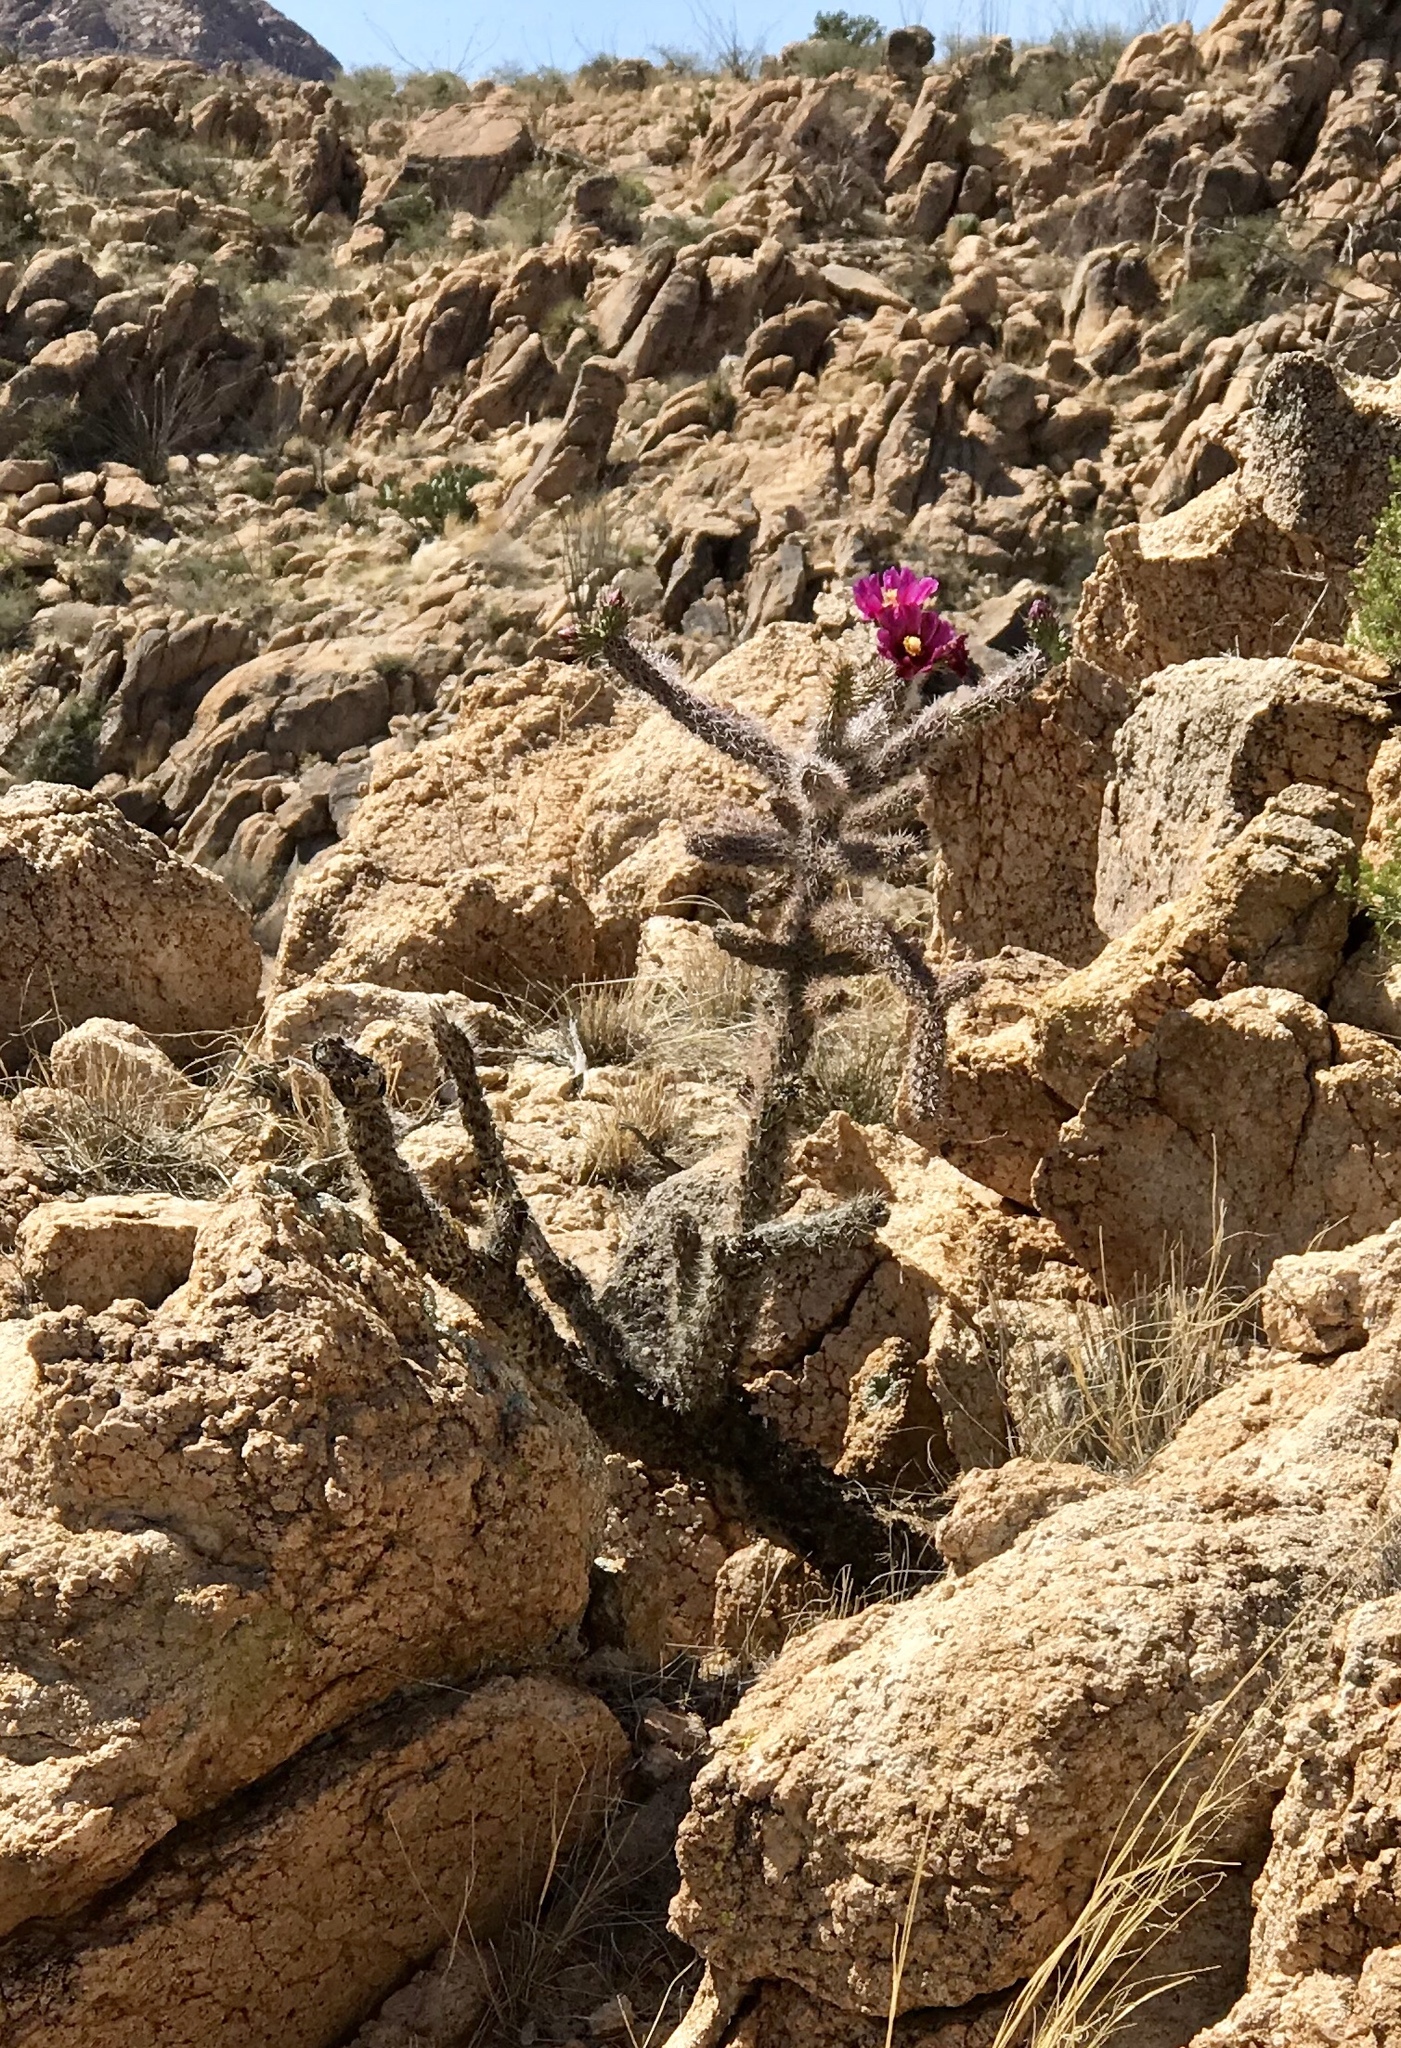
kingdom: Plantae
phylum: Tracheophyta
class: Magnoliopsida
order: Caryophyllales
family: Cactaceae
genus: Cylindropuntia
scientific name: Cylindropuntia imbricata
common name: Candelabrum cactus
